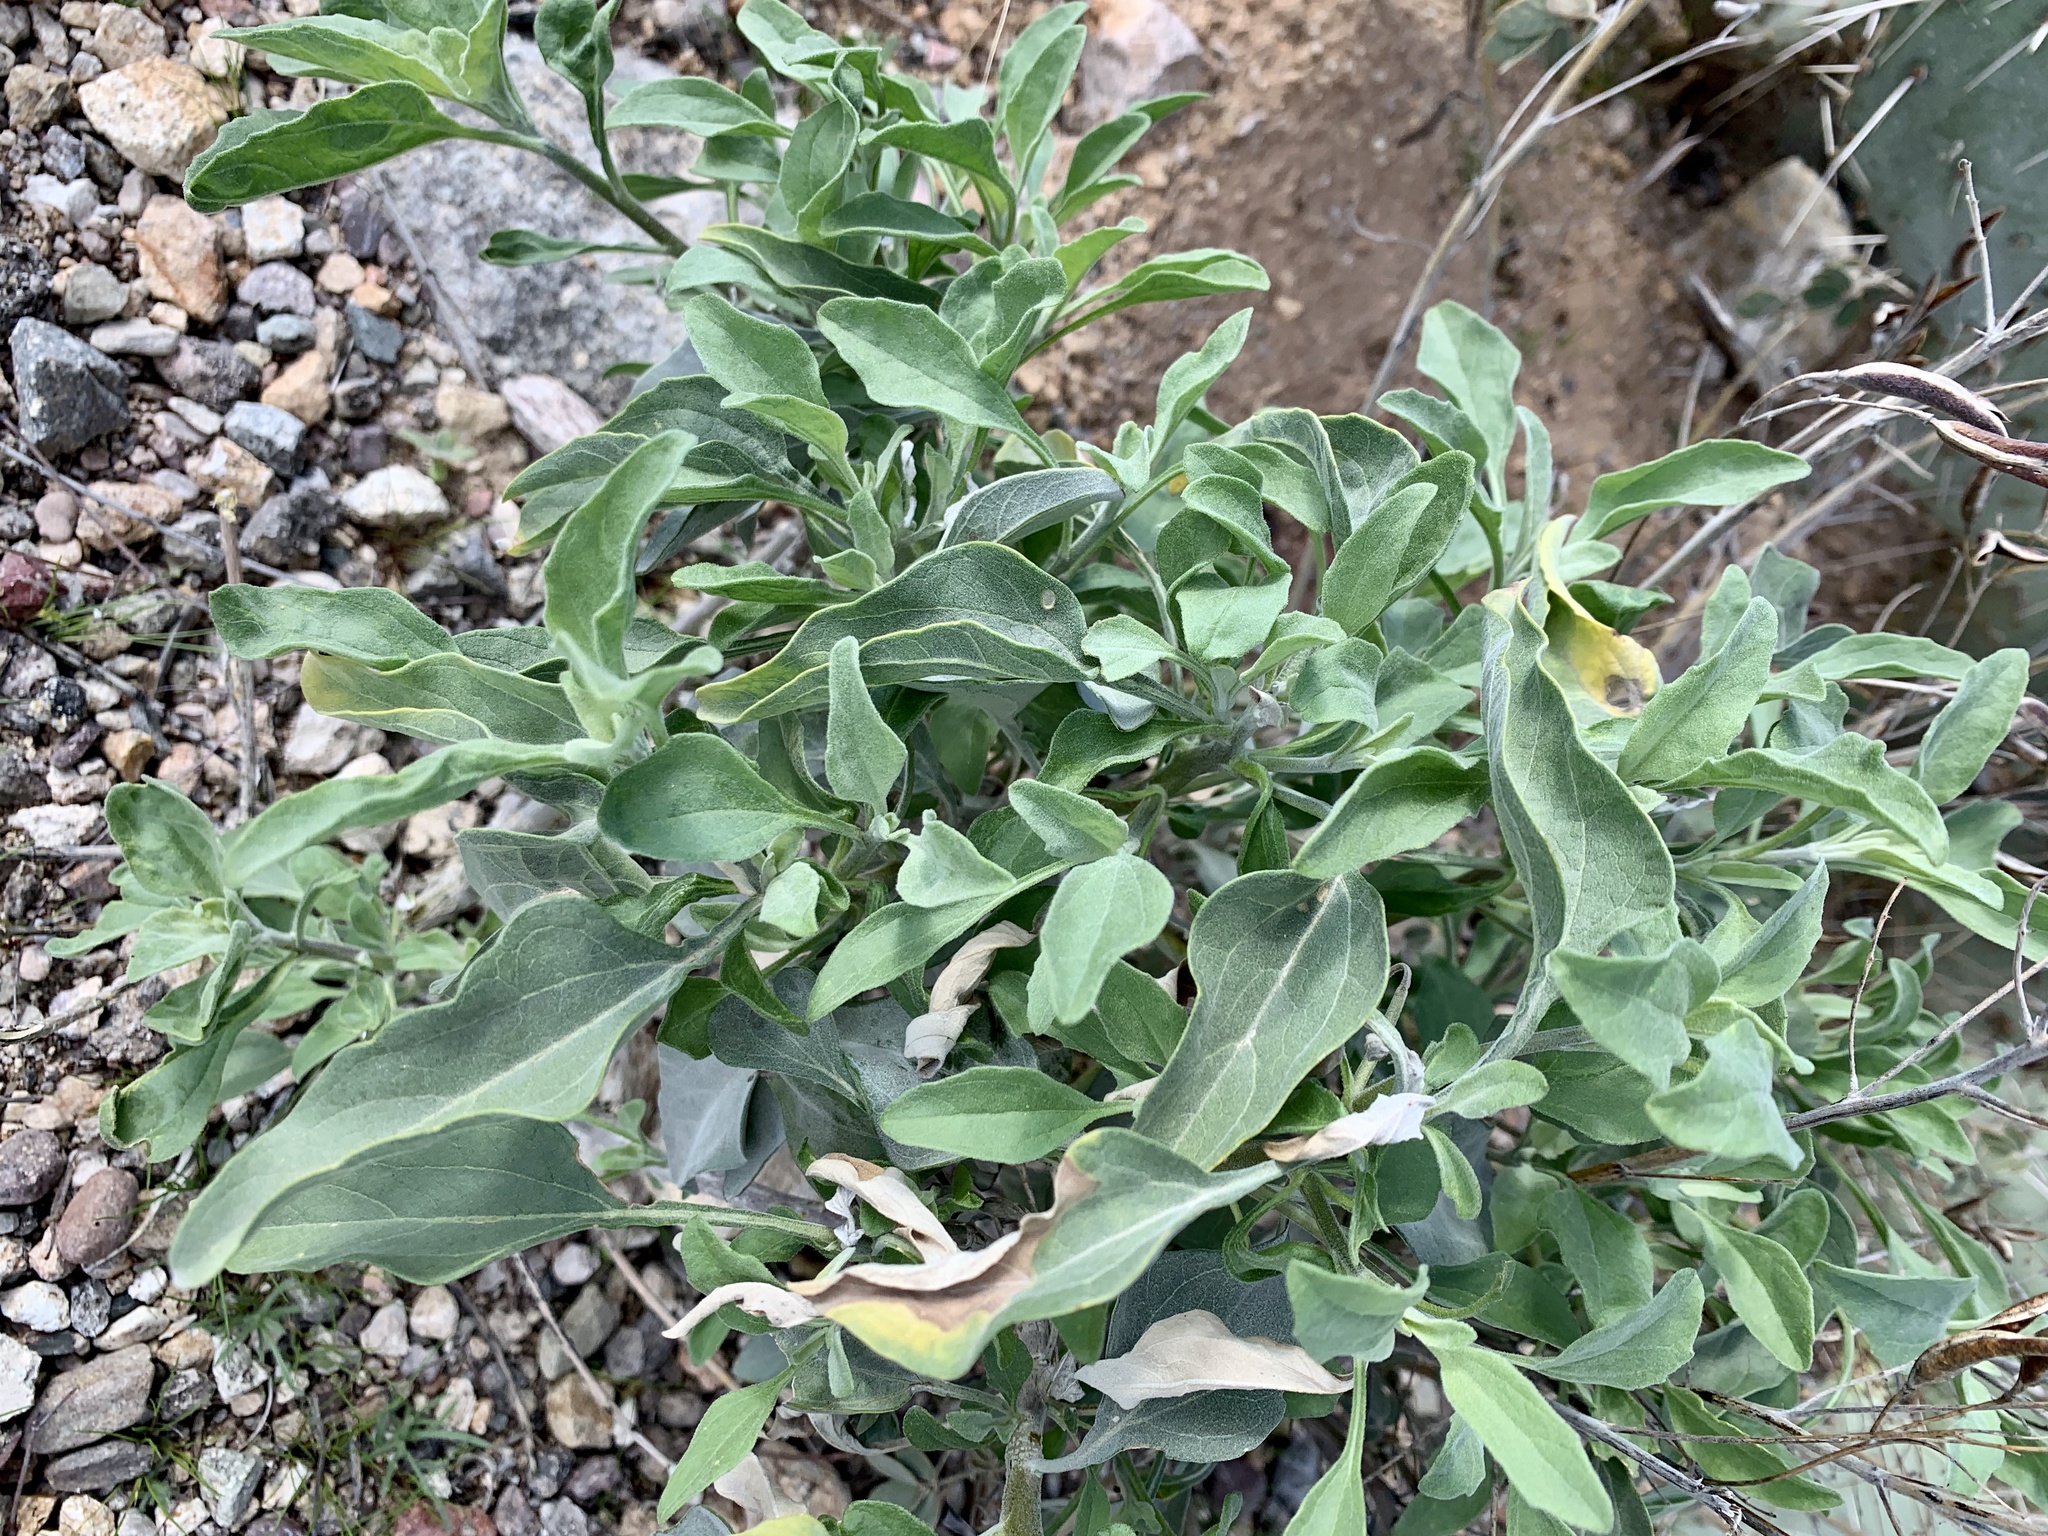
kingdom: Plantae
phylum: Tracheophyta
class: Magnoliopsida
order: Asterales
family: Asteraceae
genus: Encelia
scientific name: Encelia farinosa
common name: Brittlebush
